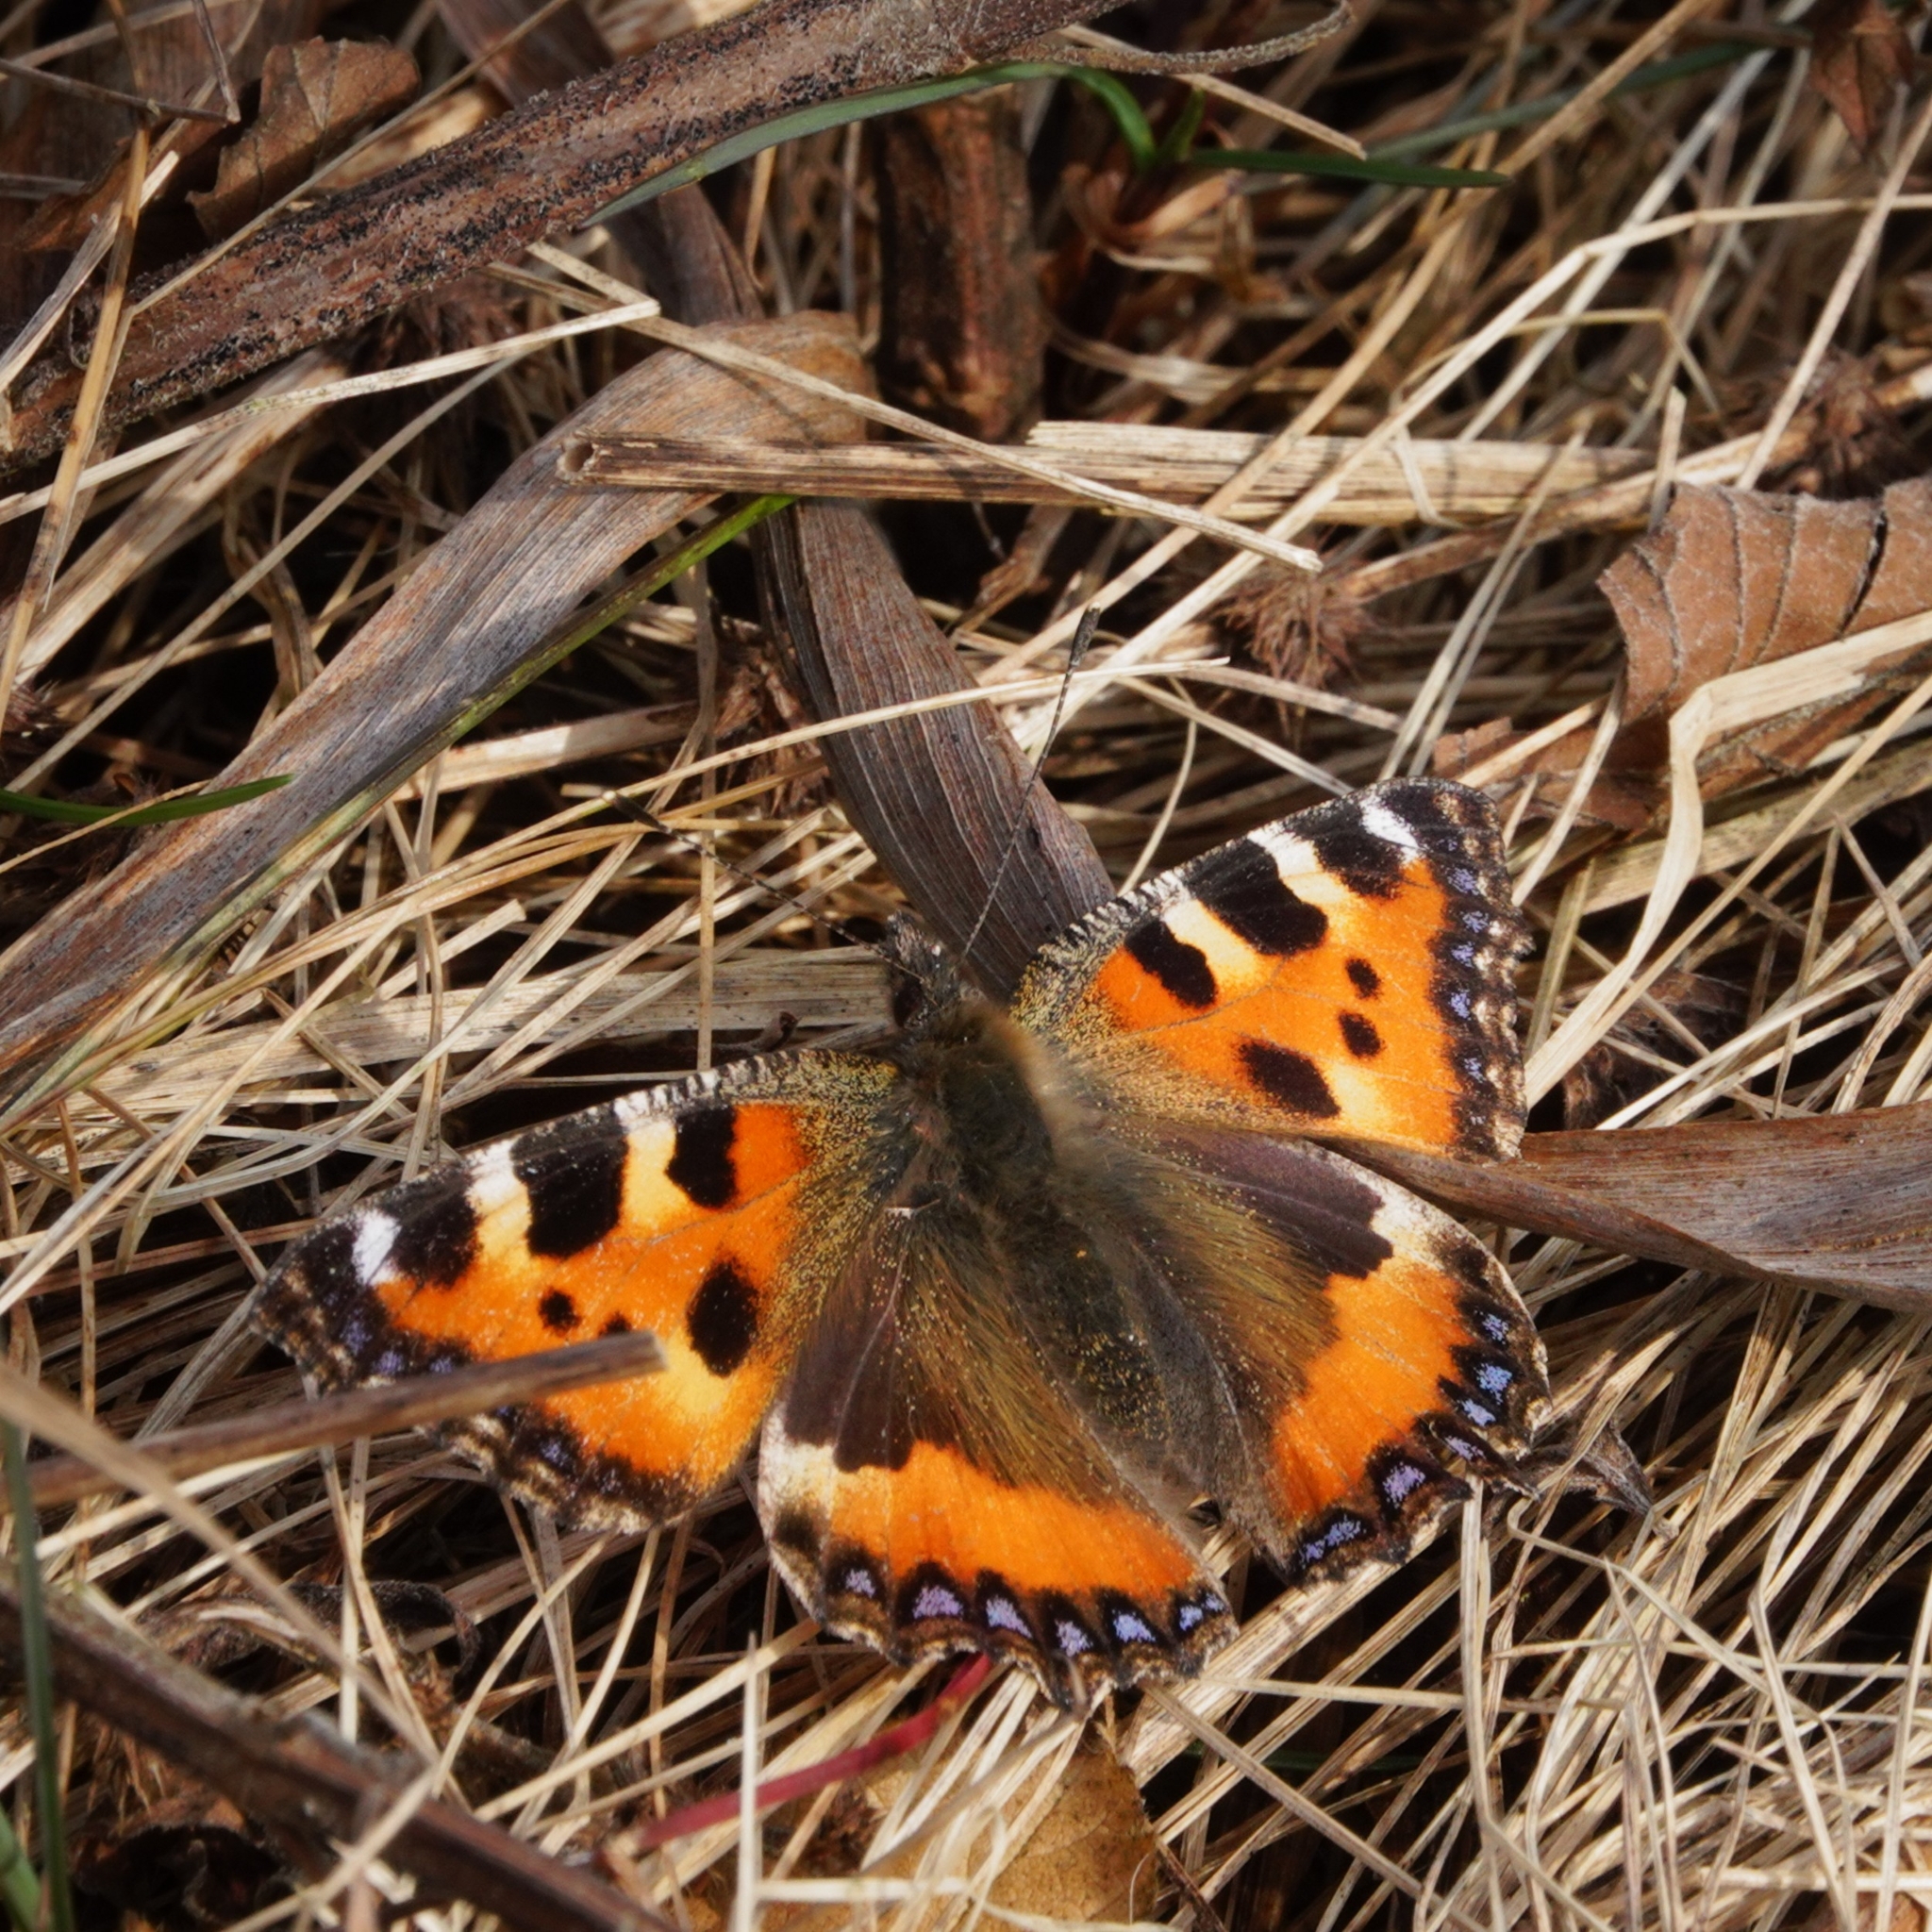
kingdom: Animalia
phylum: Arthropoda
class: Insecta
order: Lepidoptera
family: Nymphalidae
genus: Aglais
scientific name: Aglais urticae
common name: Small tortoiseshell
